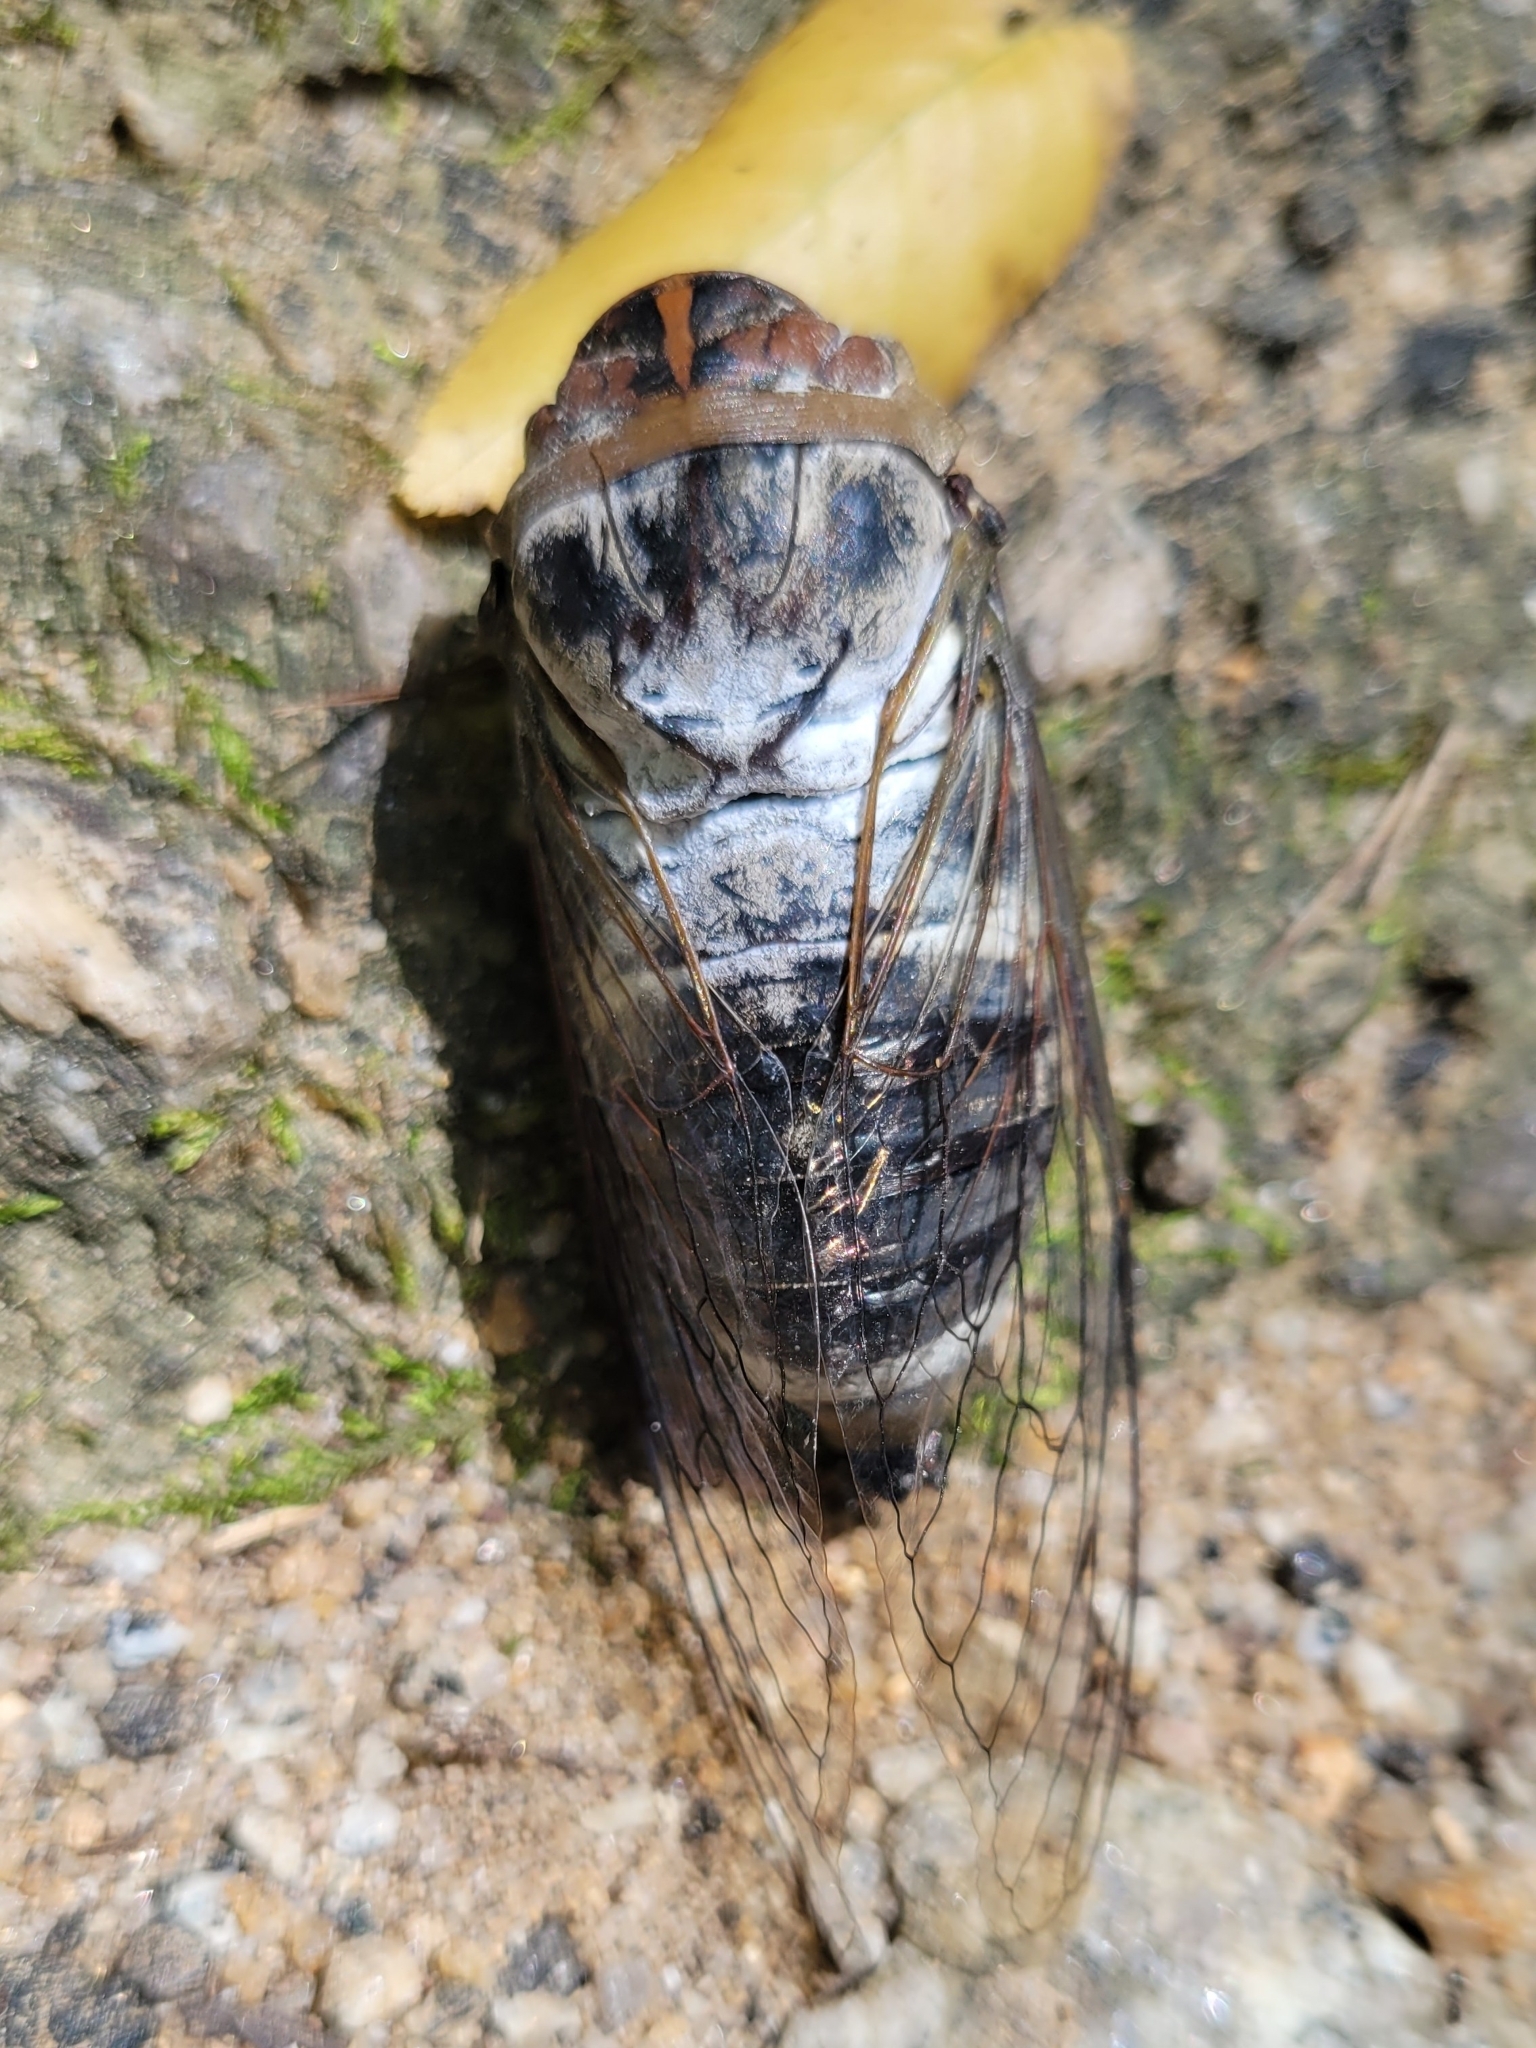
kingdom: Animalia
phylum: Arthropoda
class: Insecta
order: Hemiptera
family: Cicadidae
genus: Diceroprocta
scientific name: Diceroprocta grossa
